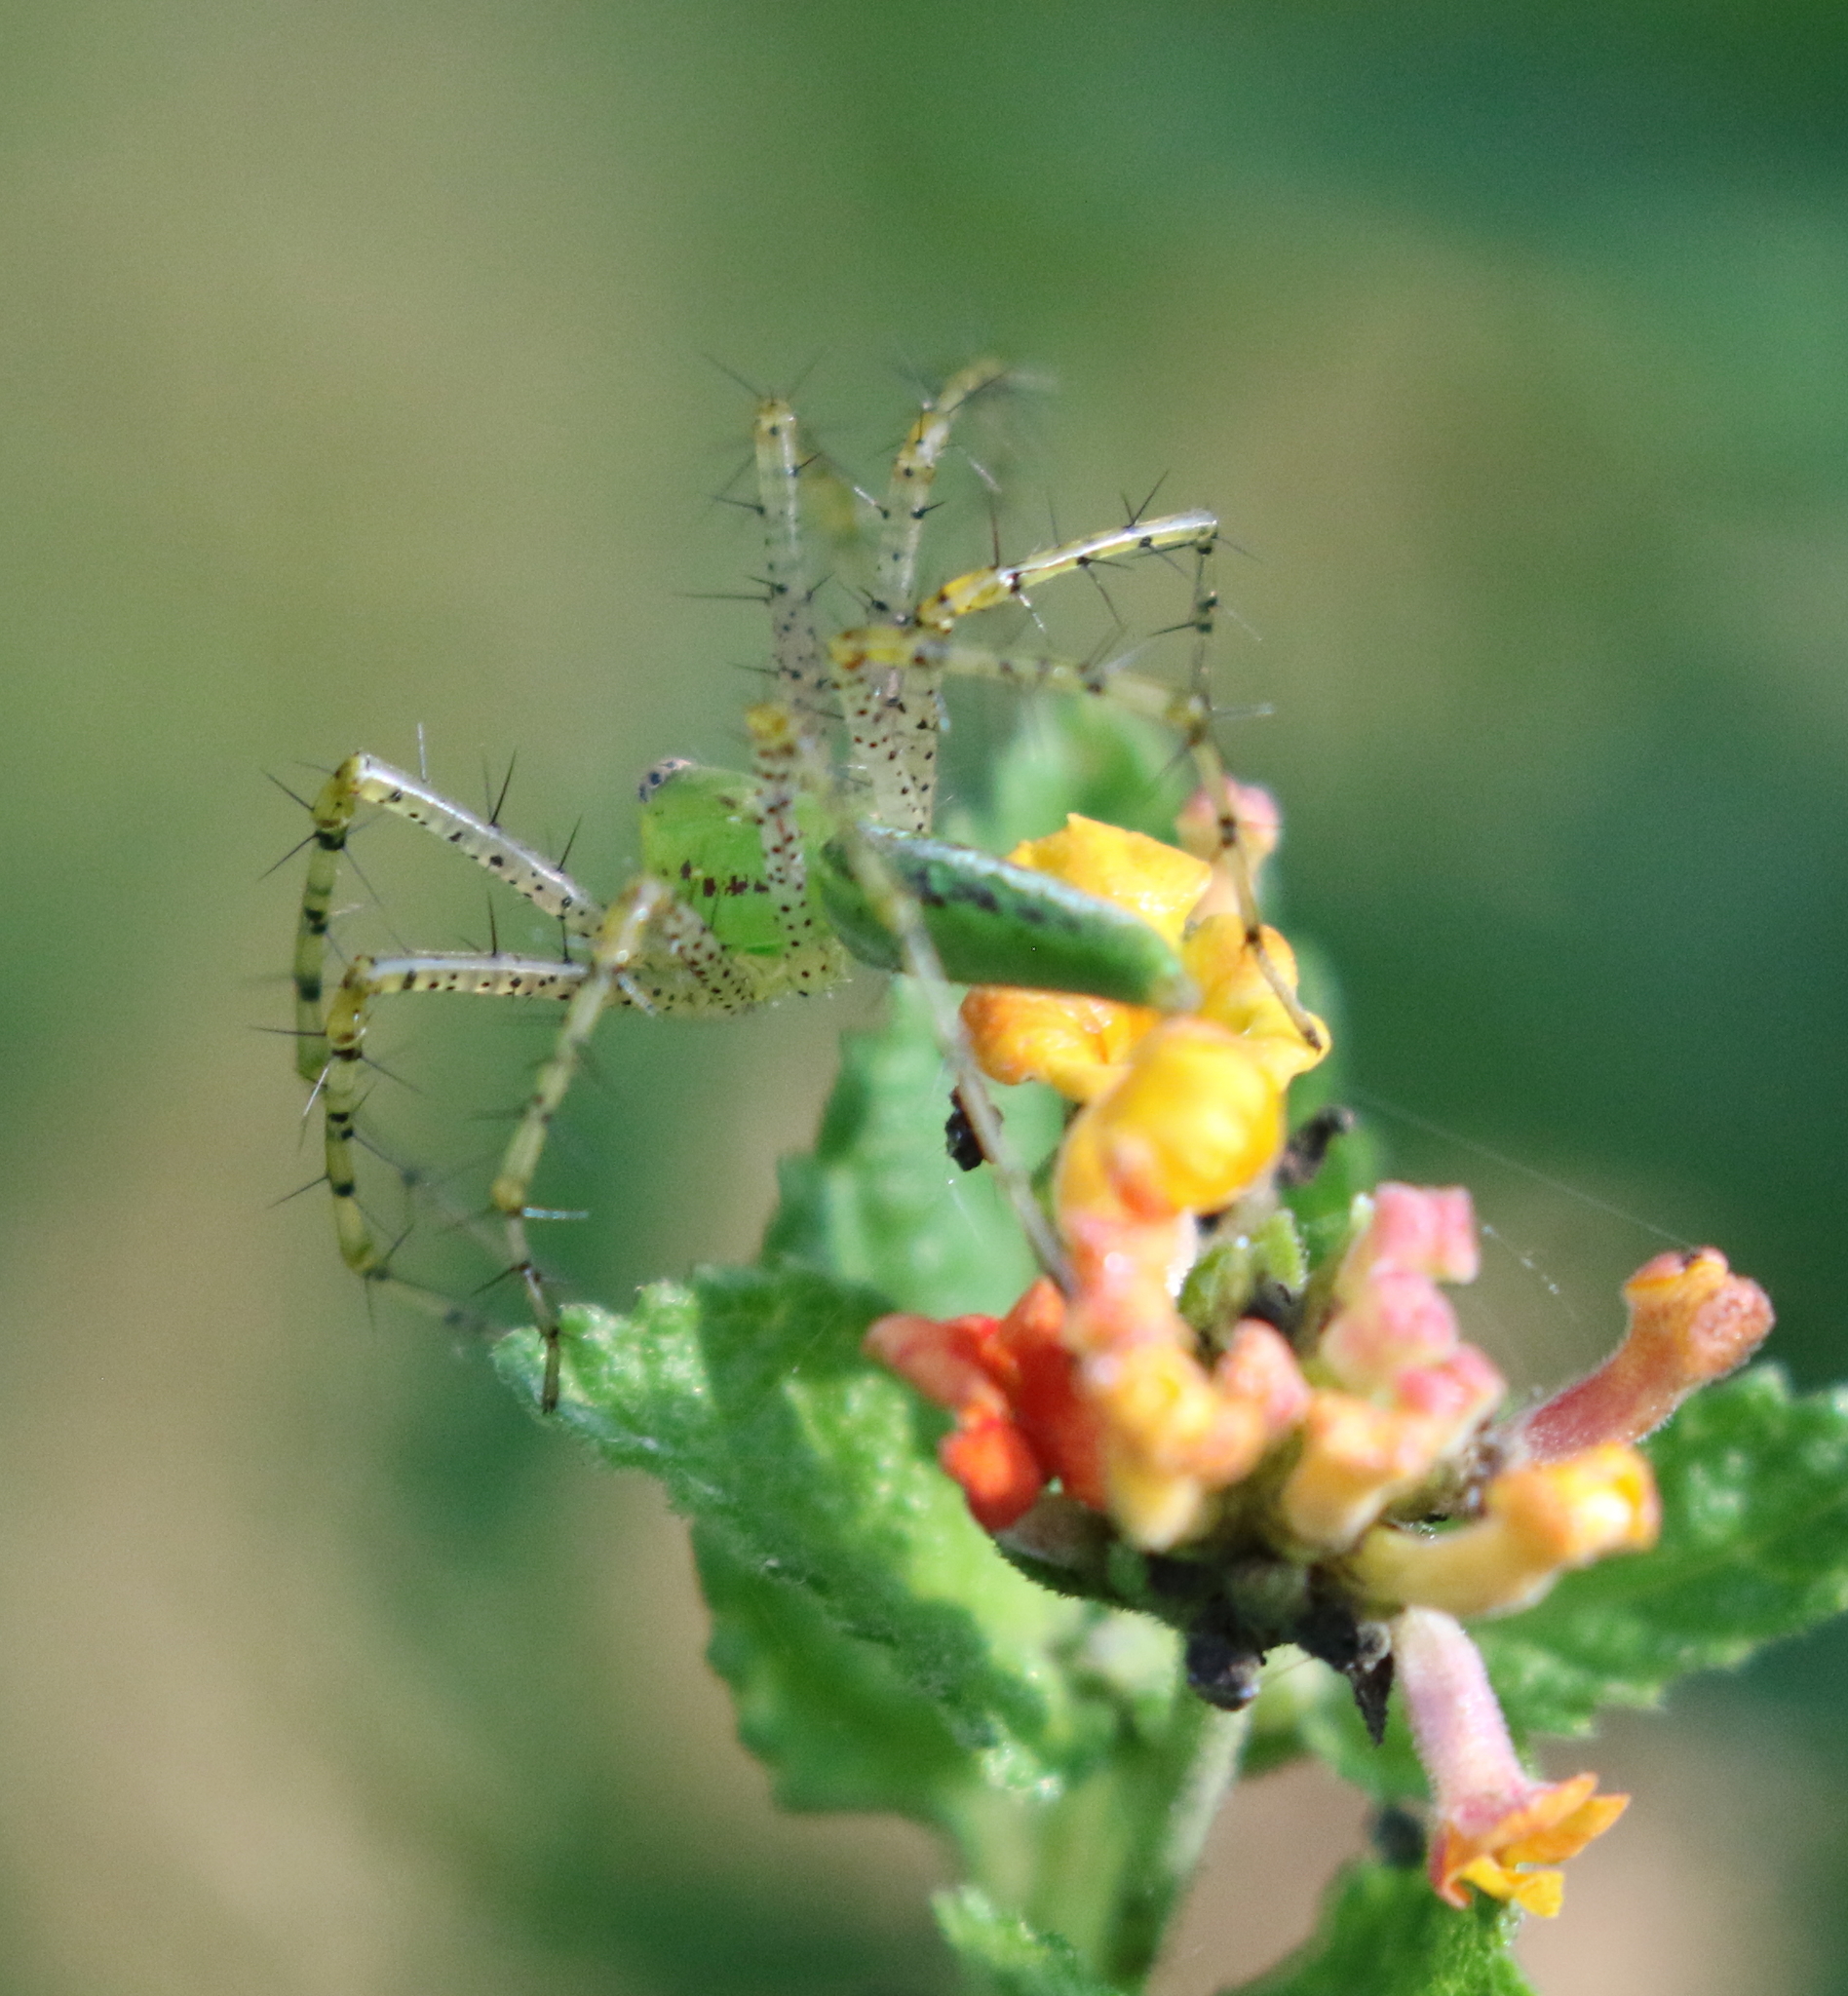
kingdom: Animalia
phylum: Arthropoda
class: Arachnida
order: Araneae
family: Oxyopidae
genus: Peucetia
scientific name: Peucetia viridans
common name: Lynx spiders
